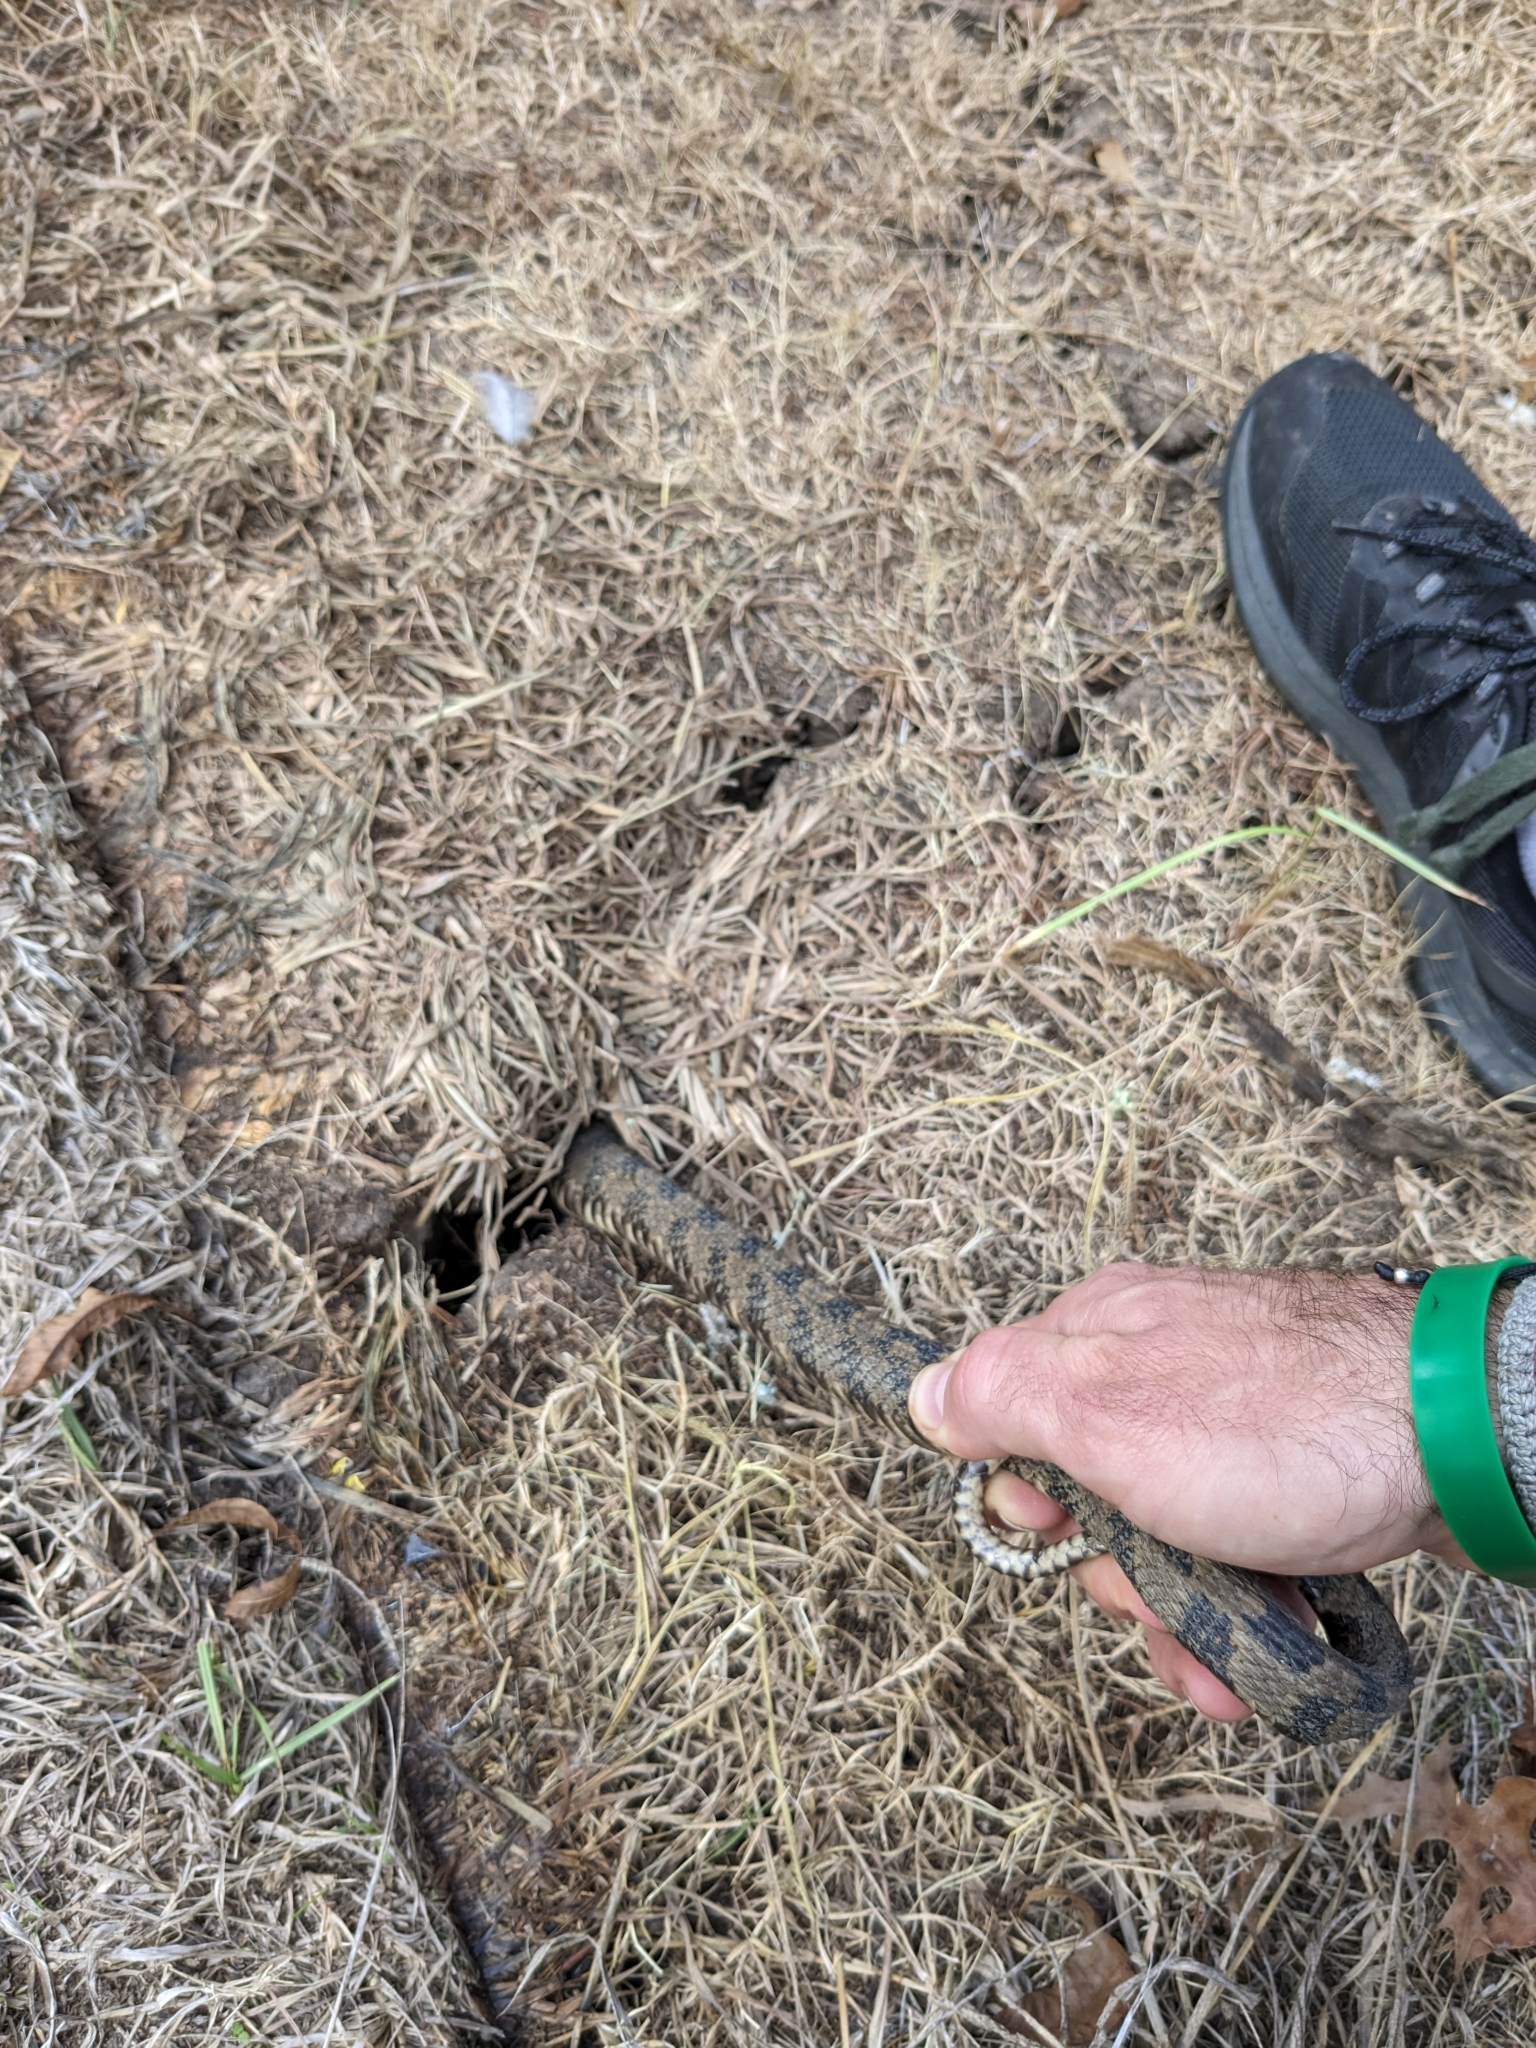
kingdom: Animalia
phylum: Chordata
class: Squamata
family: Colubridae
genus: Nerodia
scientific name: Nerodia rhombifer
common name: Diamondback water snake
